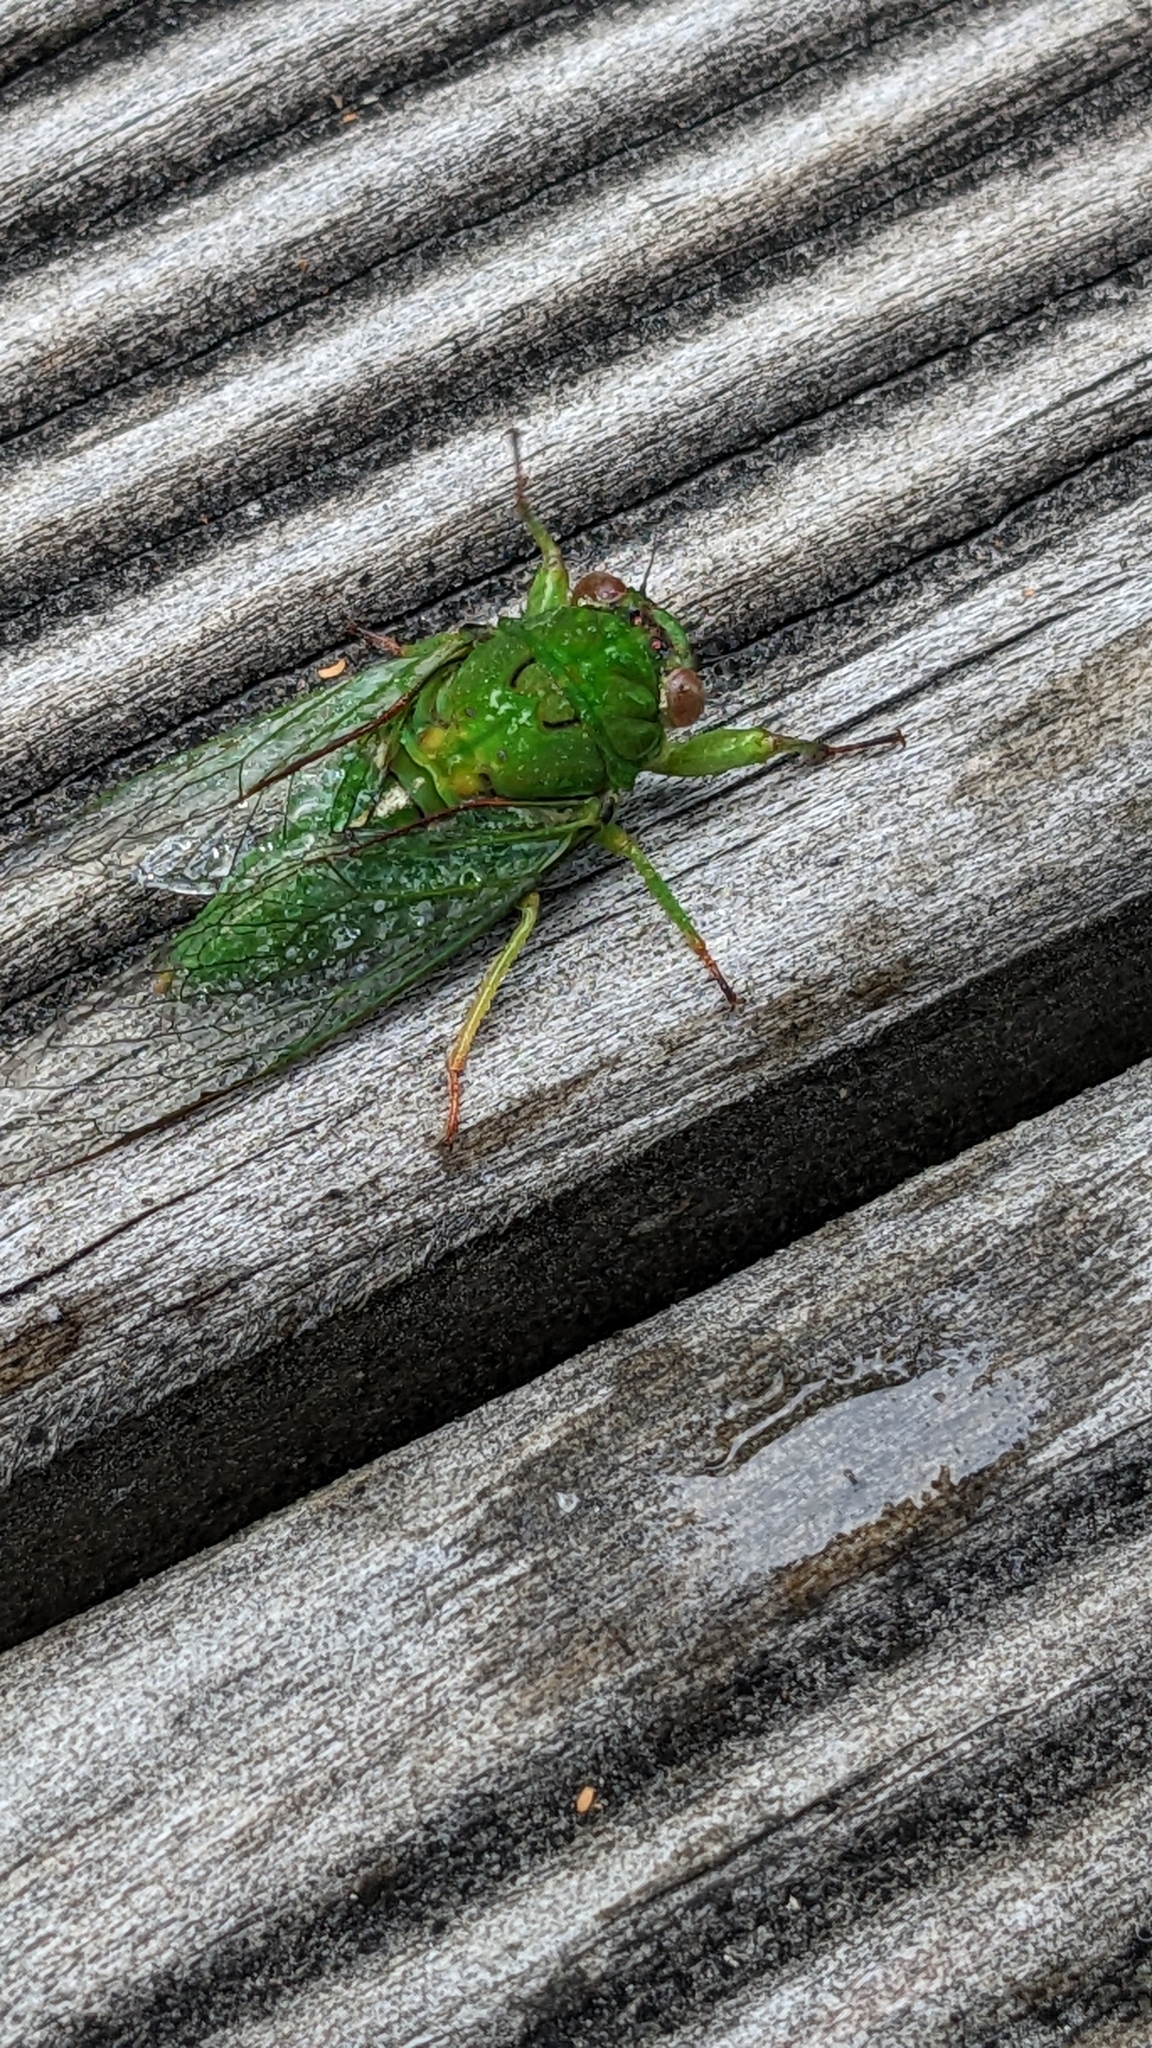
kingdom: Animalia
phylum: Arthropoda
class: Insecta
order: Hemiptera
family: Cicadidae
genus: Kikihia
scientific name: Kikihia ochrina
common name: April green cicada
